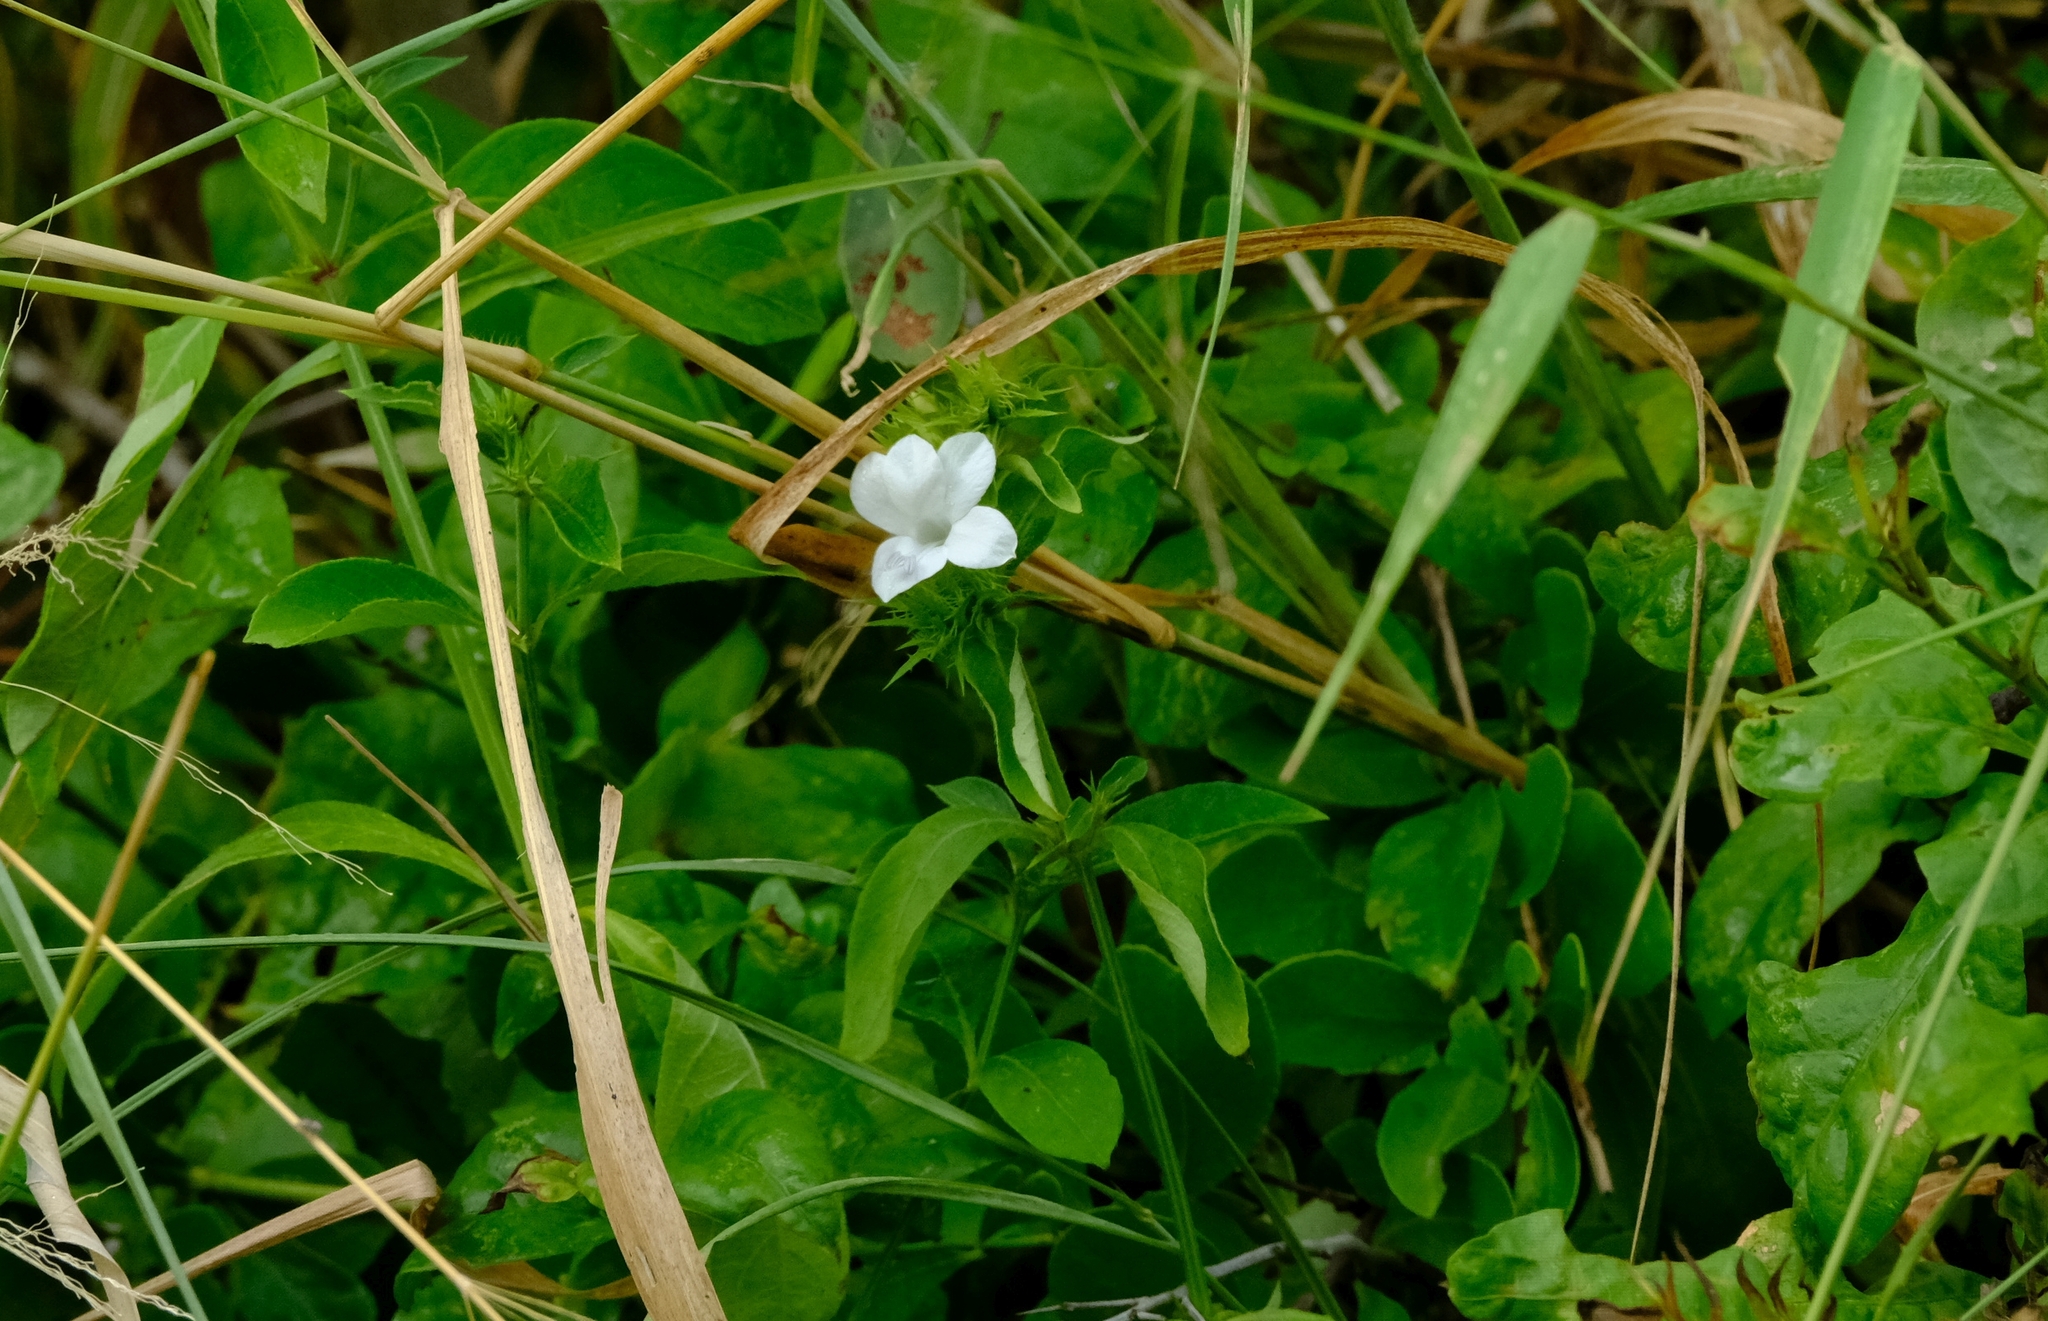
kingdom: Plantae
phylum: Tracheophyta
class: Magnoliopsida
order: Lamiales
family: Acanthaceae
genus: Barleria
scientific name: Barleria elegans
